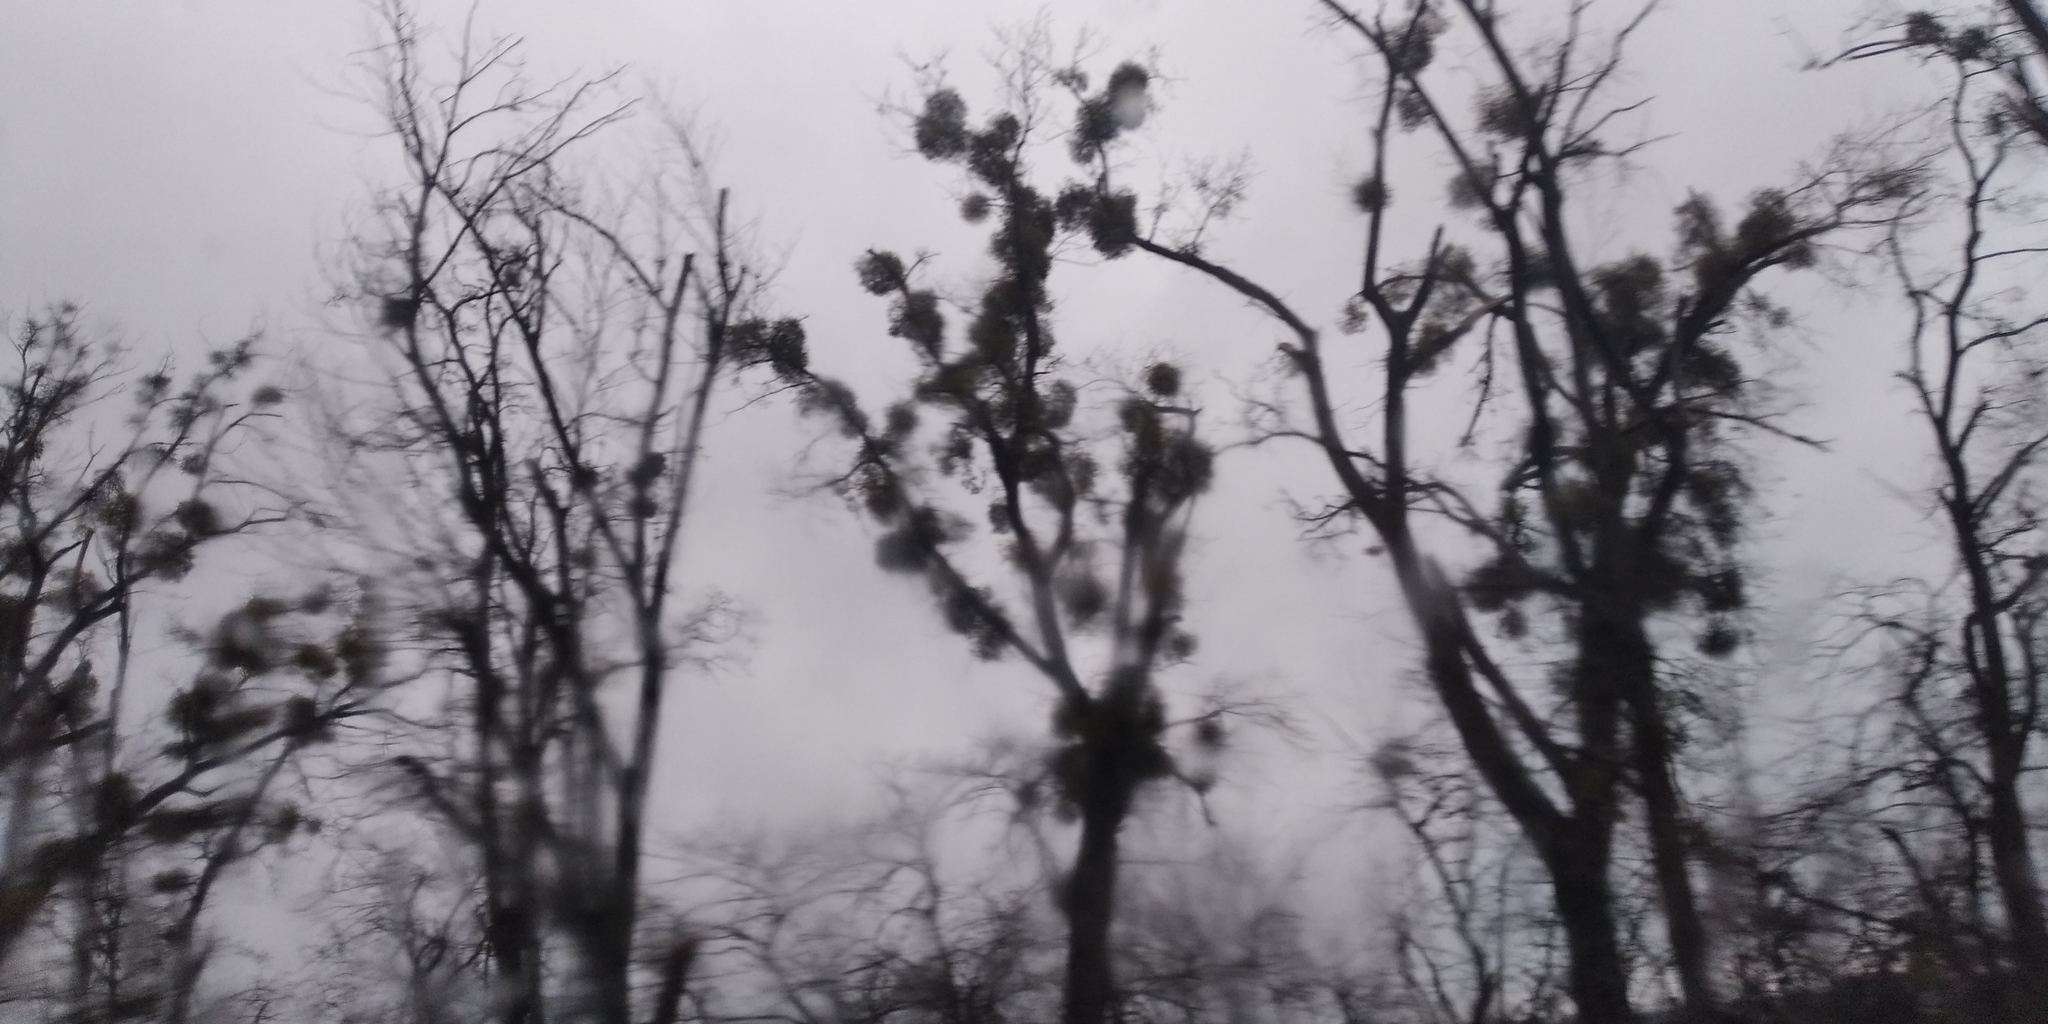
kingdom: Plantae
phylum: Tracheophyta
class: Magnoliopsida
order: Santalales
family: Viscaceae
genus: Viscum
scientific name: Viscum album
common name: Mistletoe
